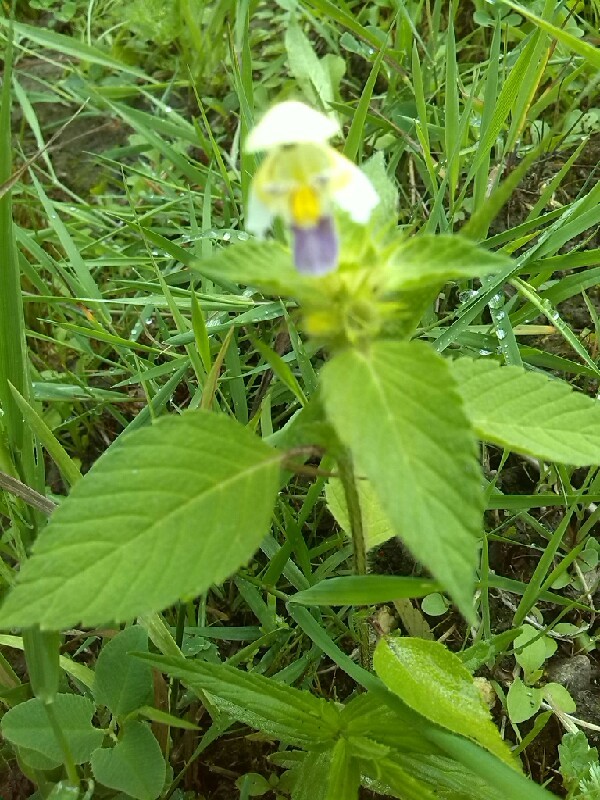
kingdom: Plantae
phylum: Tracheophyta
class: Magnoliopsida
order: Lamiales
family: Lamiaceae
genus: Galeopsis
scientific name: Galeopsis speciosa
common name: Large-flowered hemp-nettle
